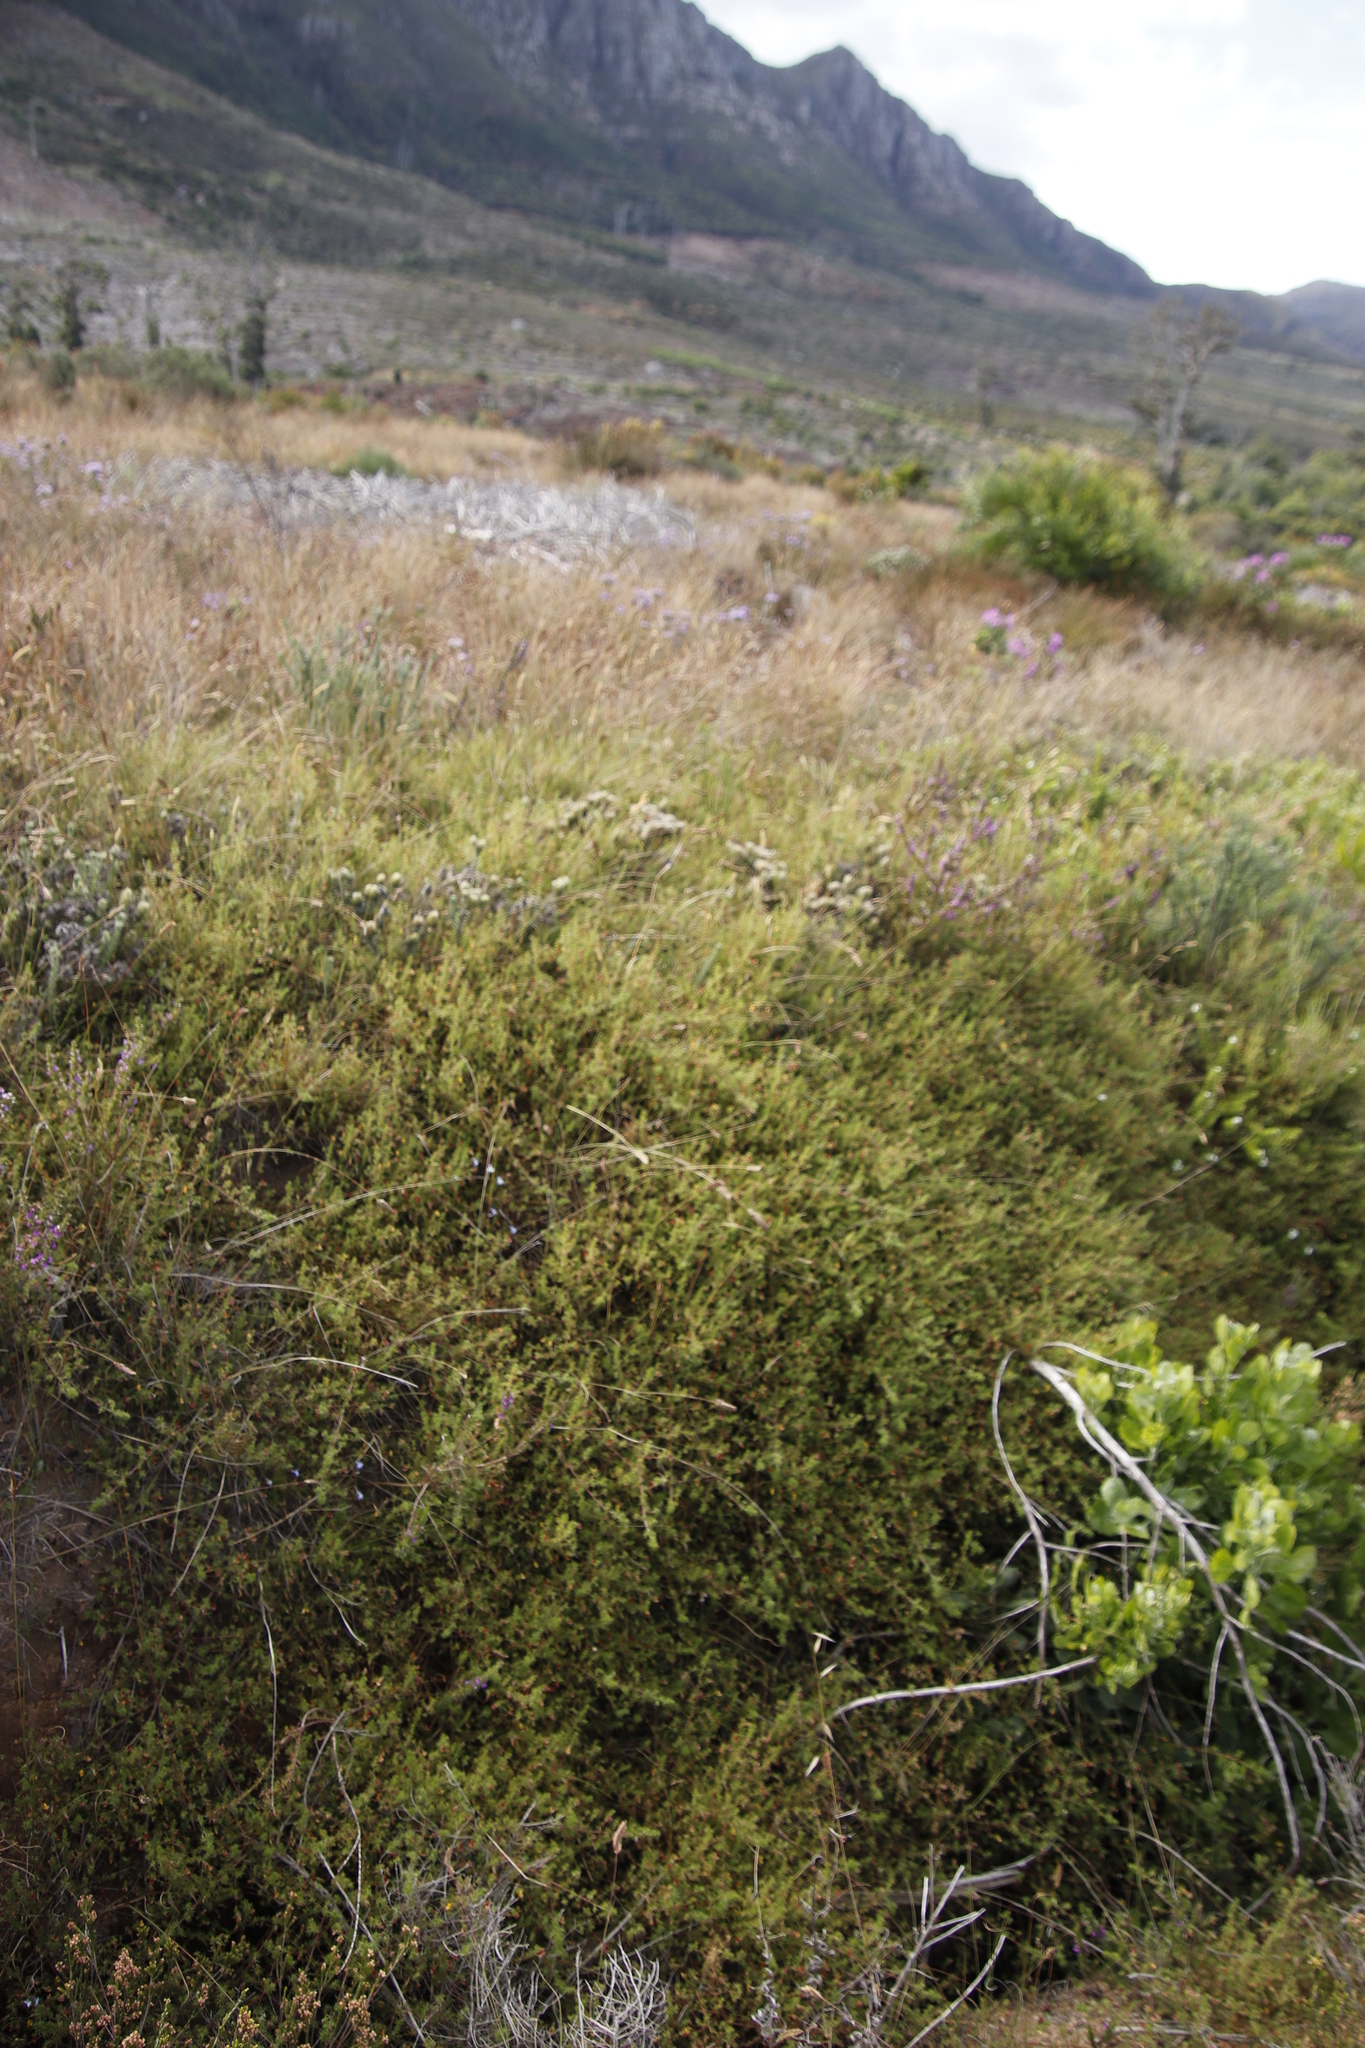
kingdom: Plantae
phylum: Tracheophyta
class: Magnoliopsida
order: Fabales
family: Fabaceae
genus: Aspalathus
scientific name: Aspalathus retroflexa
